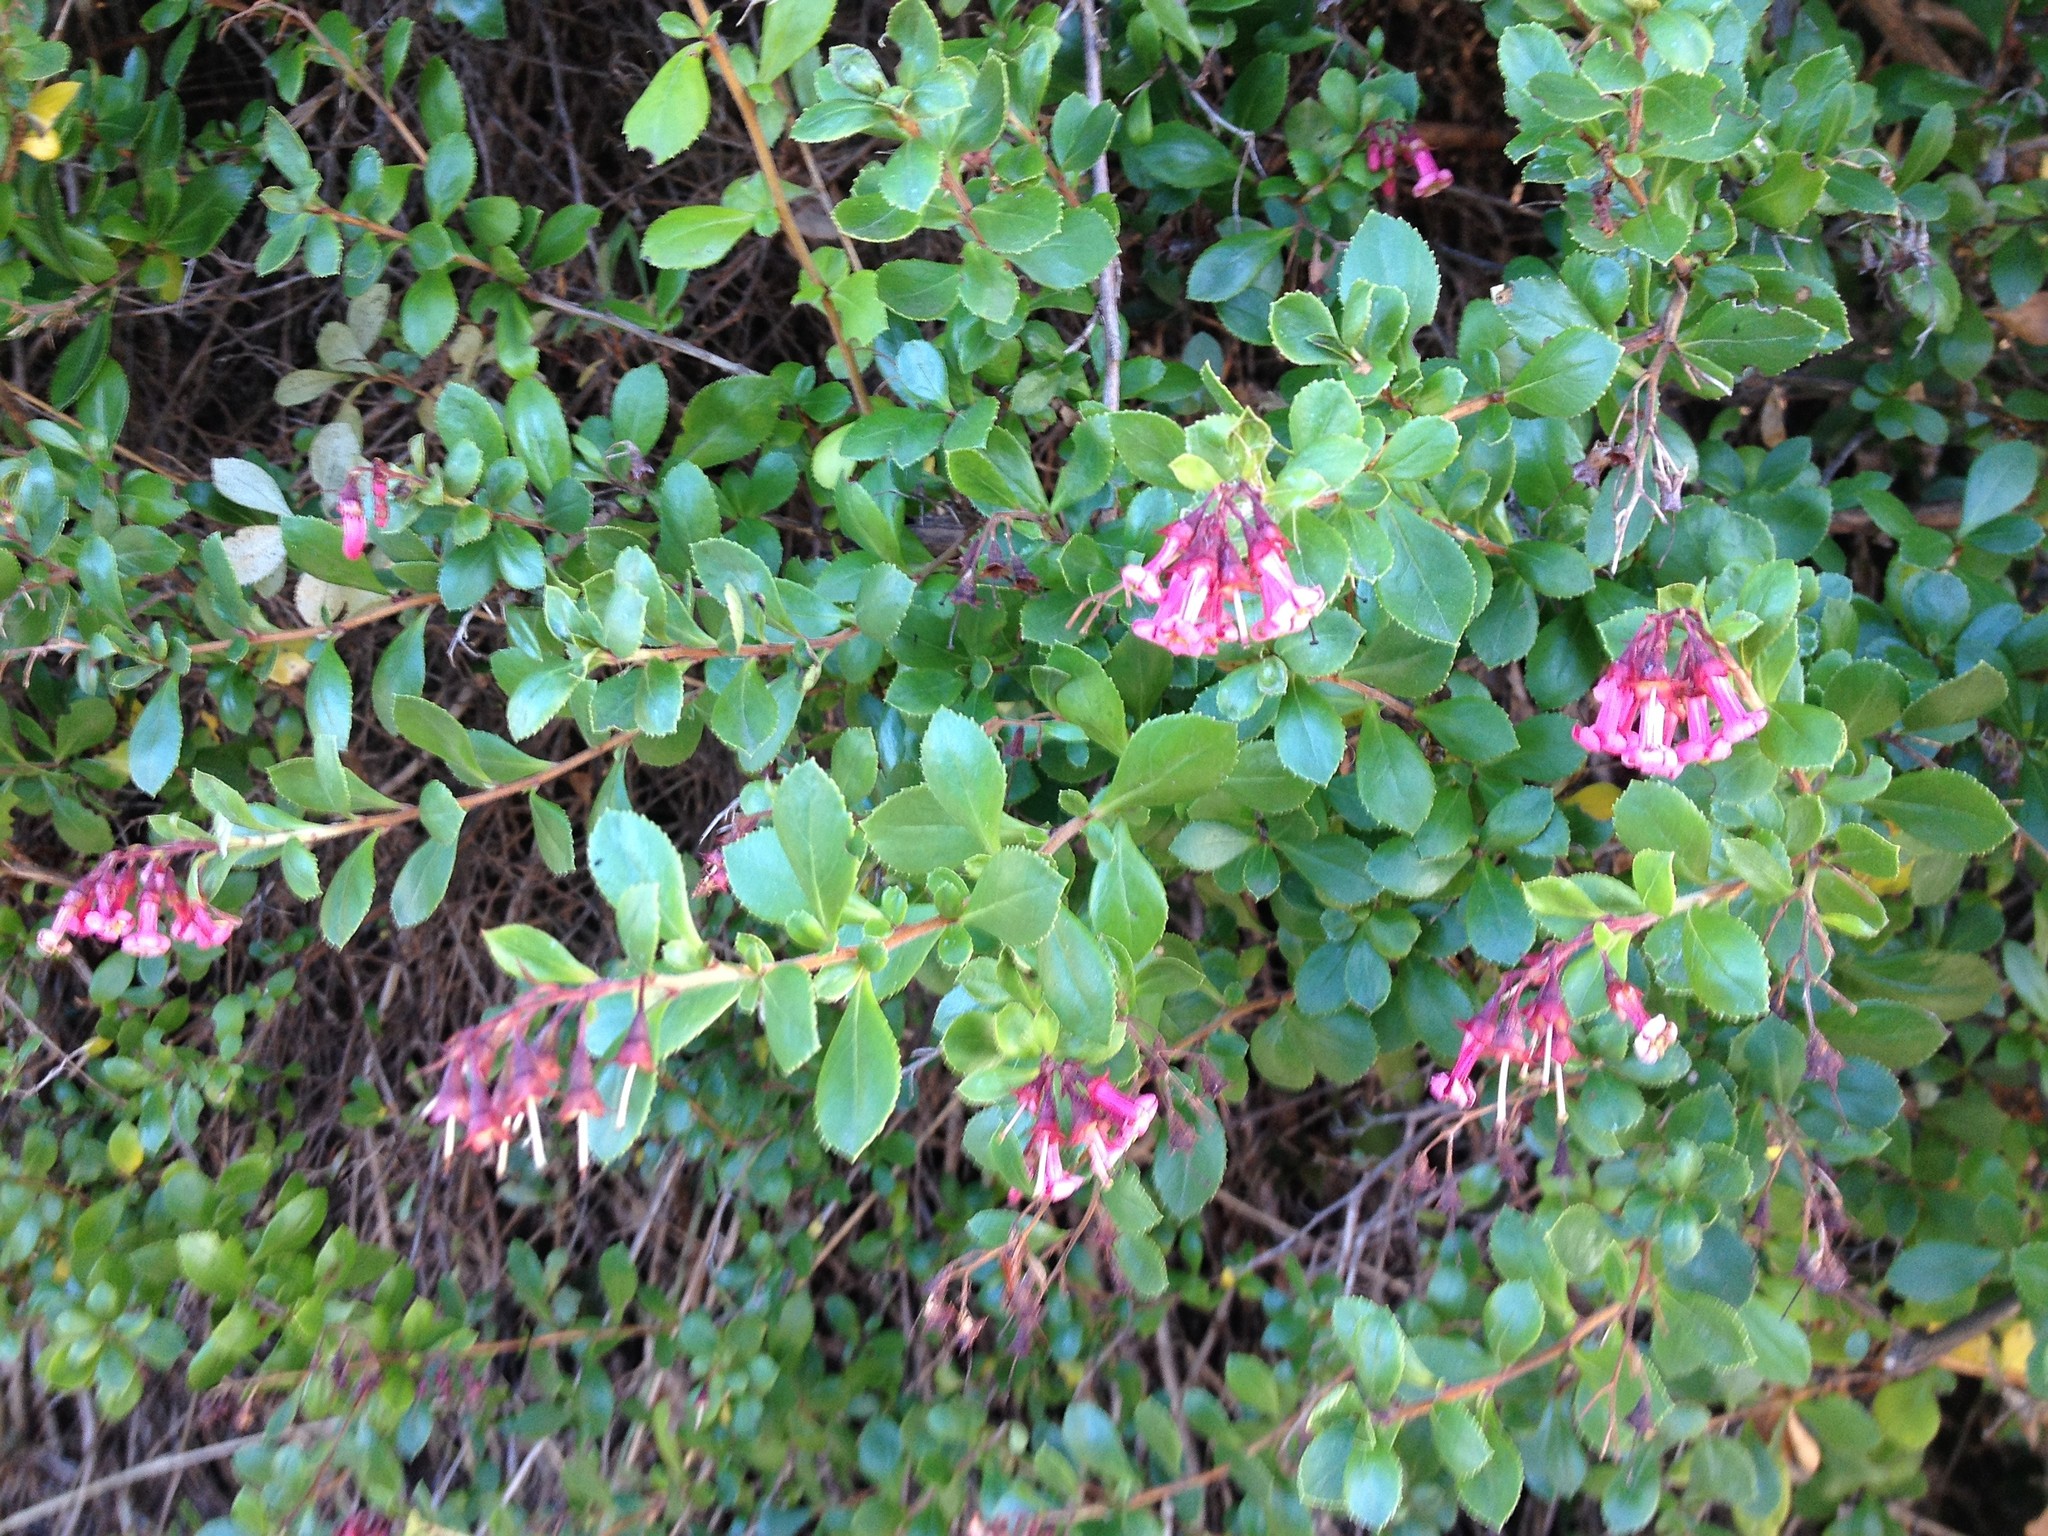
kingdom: Plantae
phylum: Tracheophyta
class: Magnoliopsida
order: Escalloniales
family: Escalloniaceae
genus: Escallonia
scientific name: Escallonia rubra
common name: Redclaws
